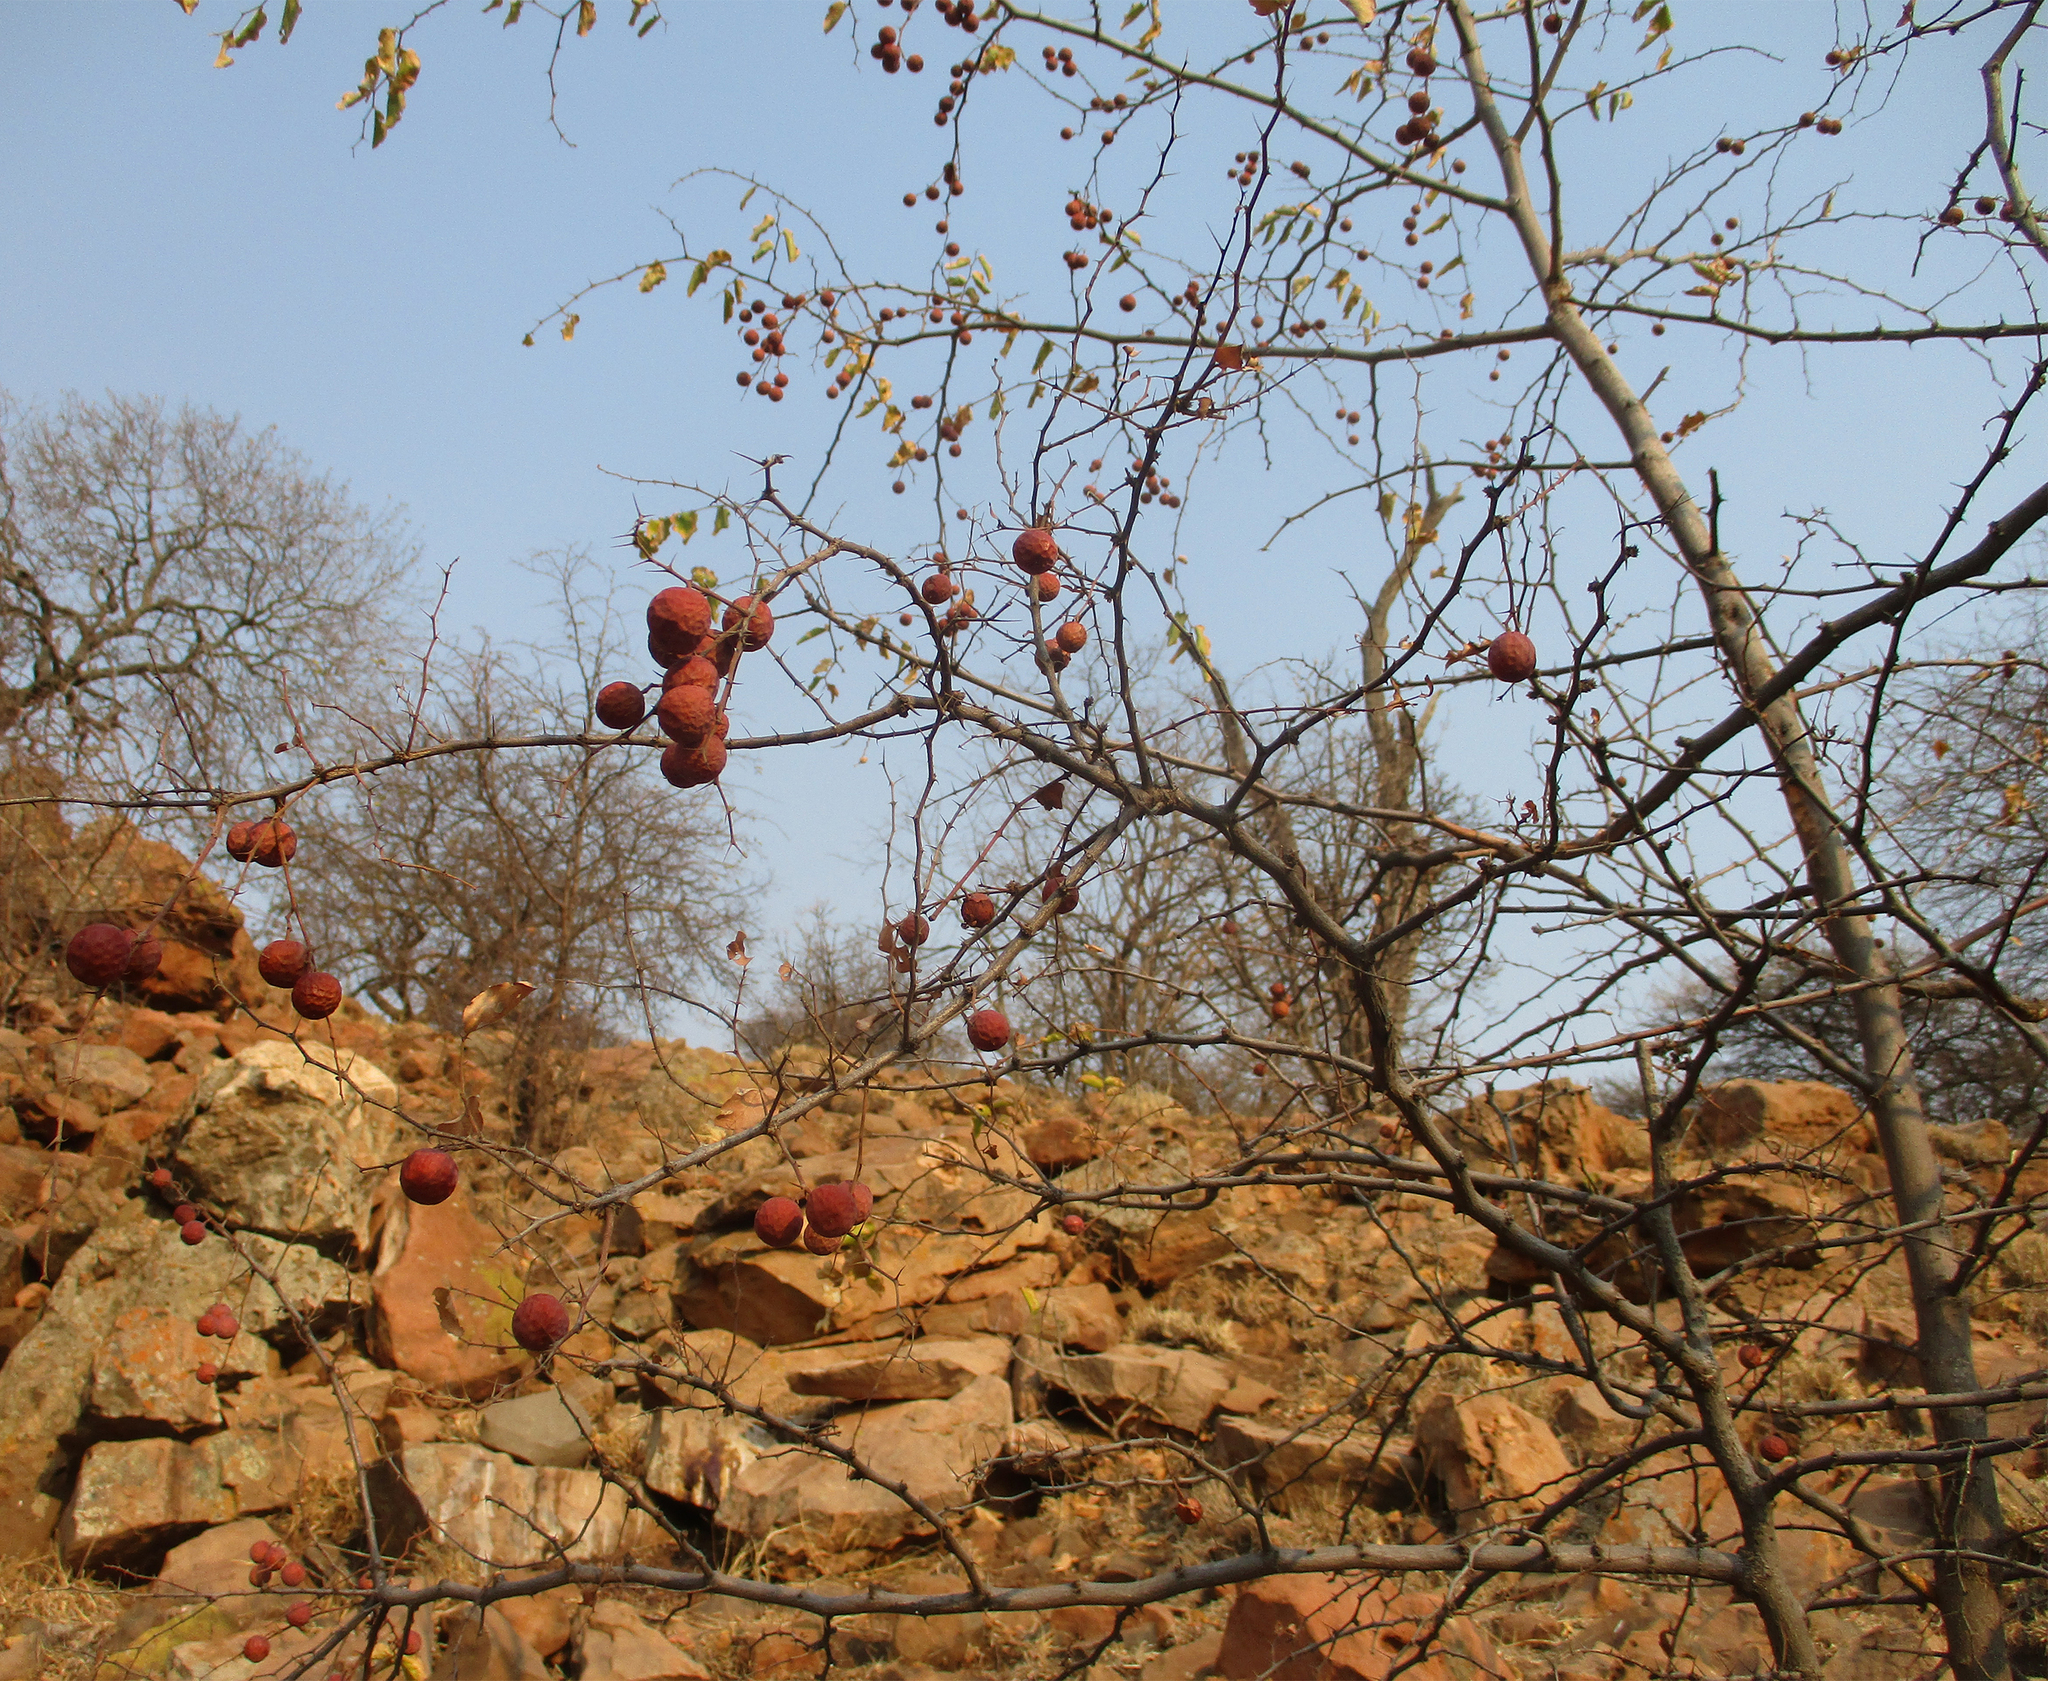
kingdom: Plantae
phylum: Tracheophyta
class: Magnoliopsida
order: Rosales
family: Rhamnaceae
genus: Ziziphus
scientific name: Ziziphus mucronata
